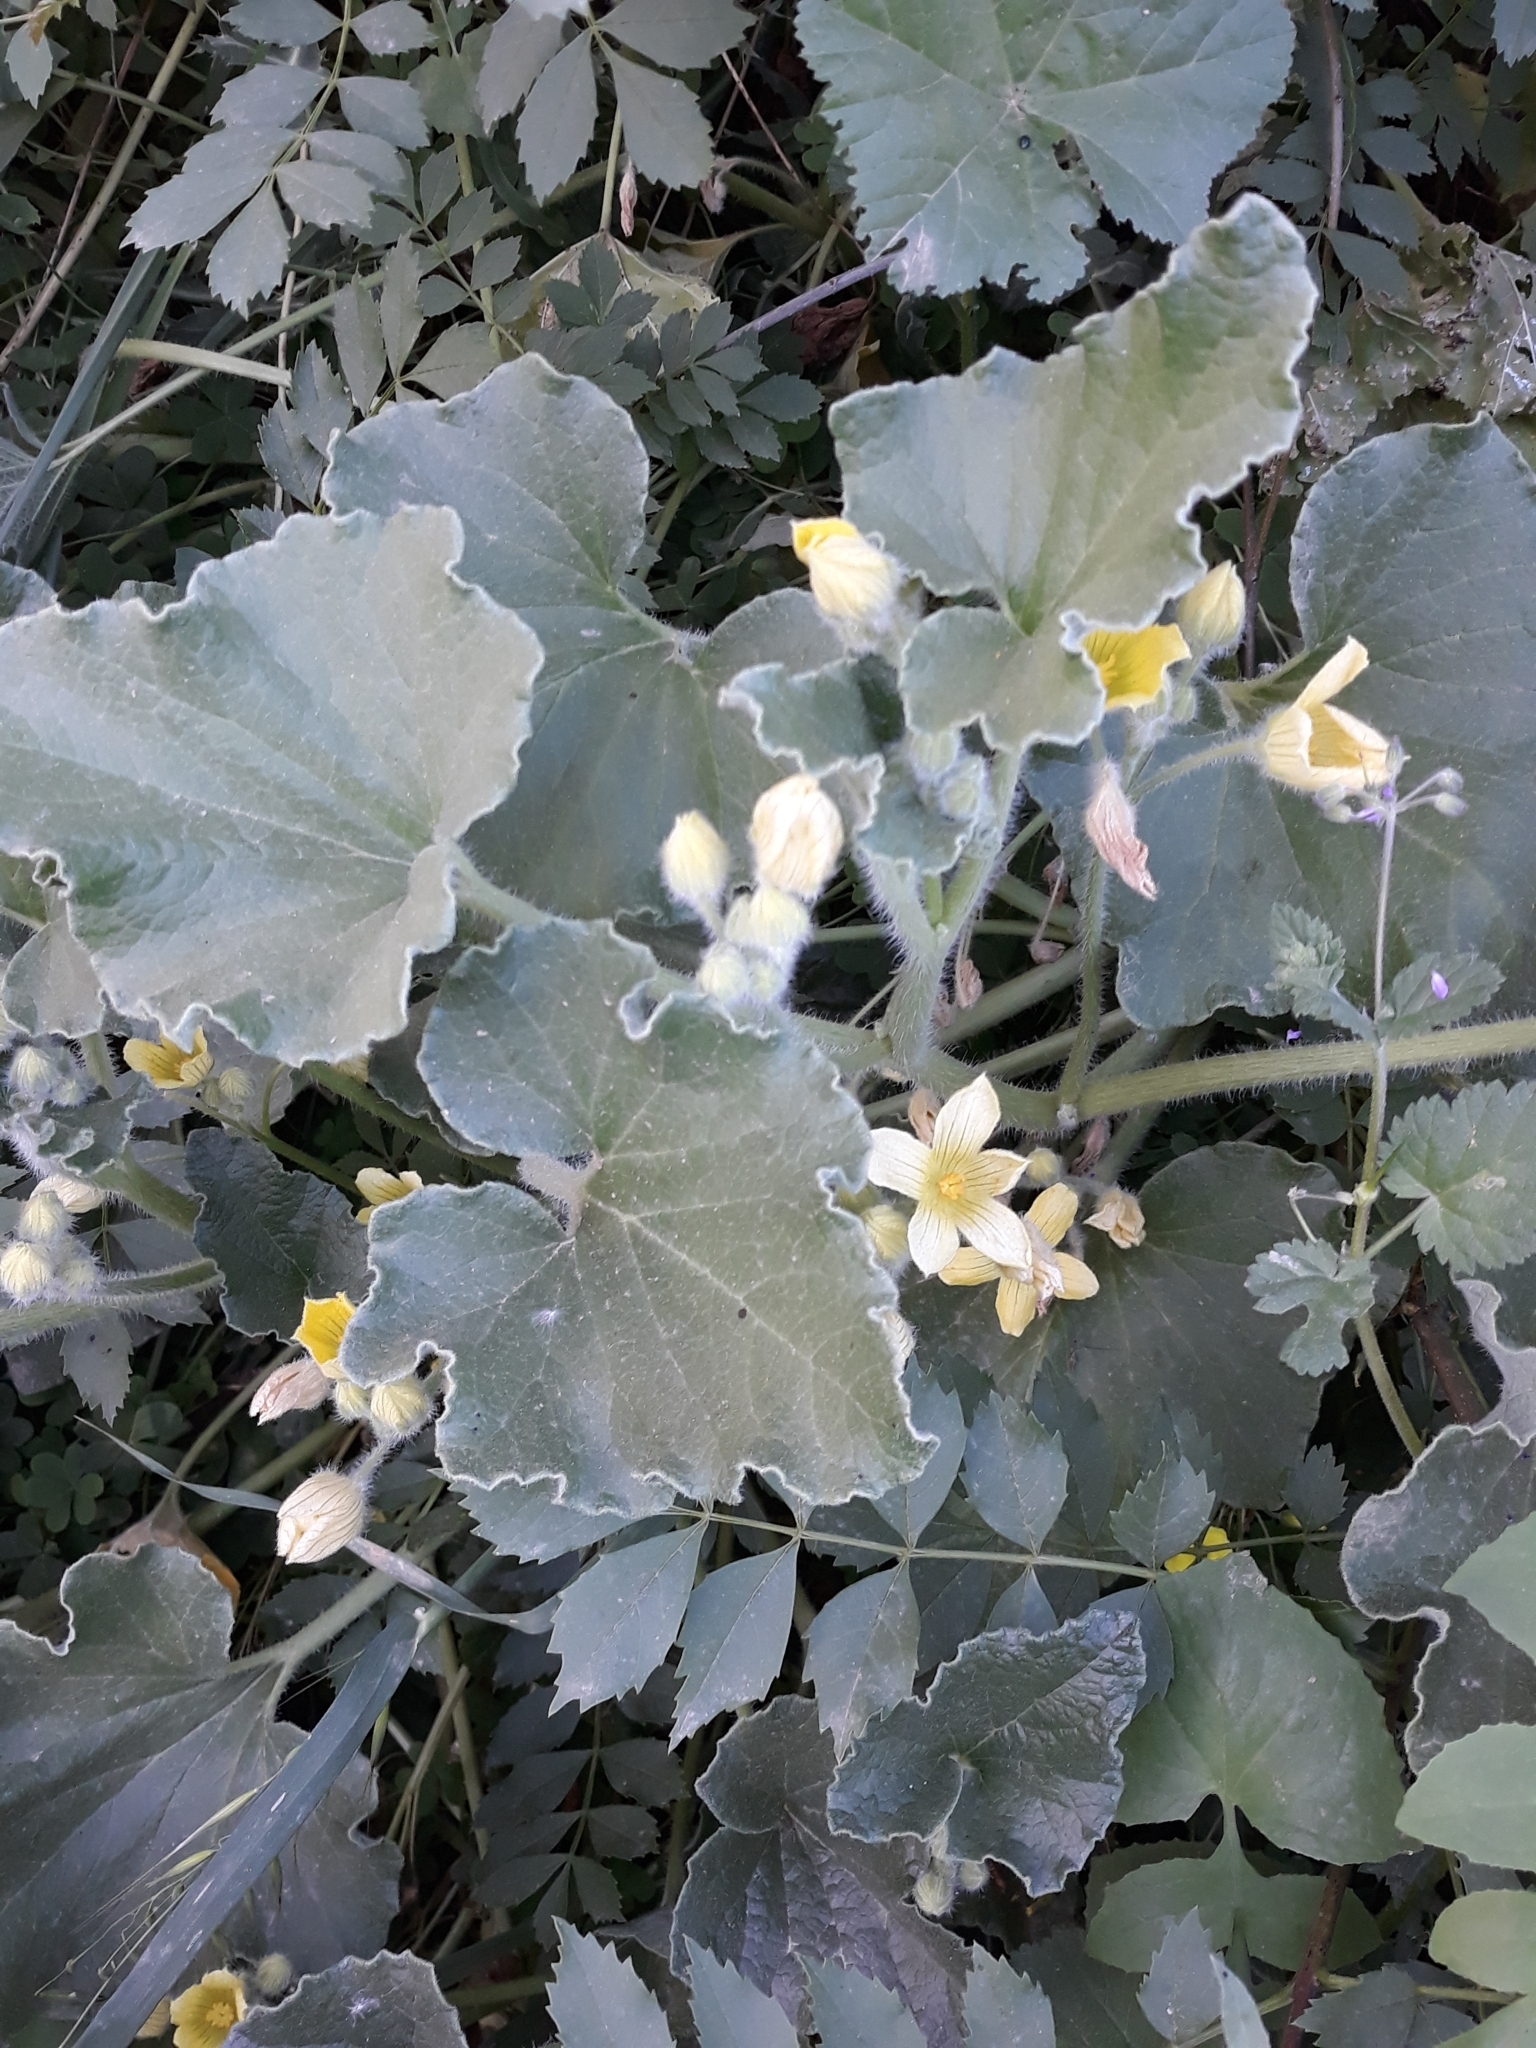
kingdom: Plantae
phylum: Tracheophyta
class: Magnoliopsida
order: Cucurbitales
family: Cucurbitaceae
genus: Ecballium
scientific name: Ecballium elaterium
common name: Squirting cucumber
